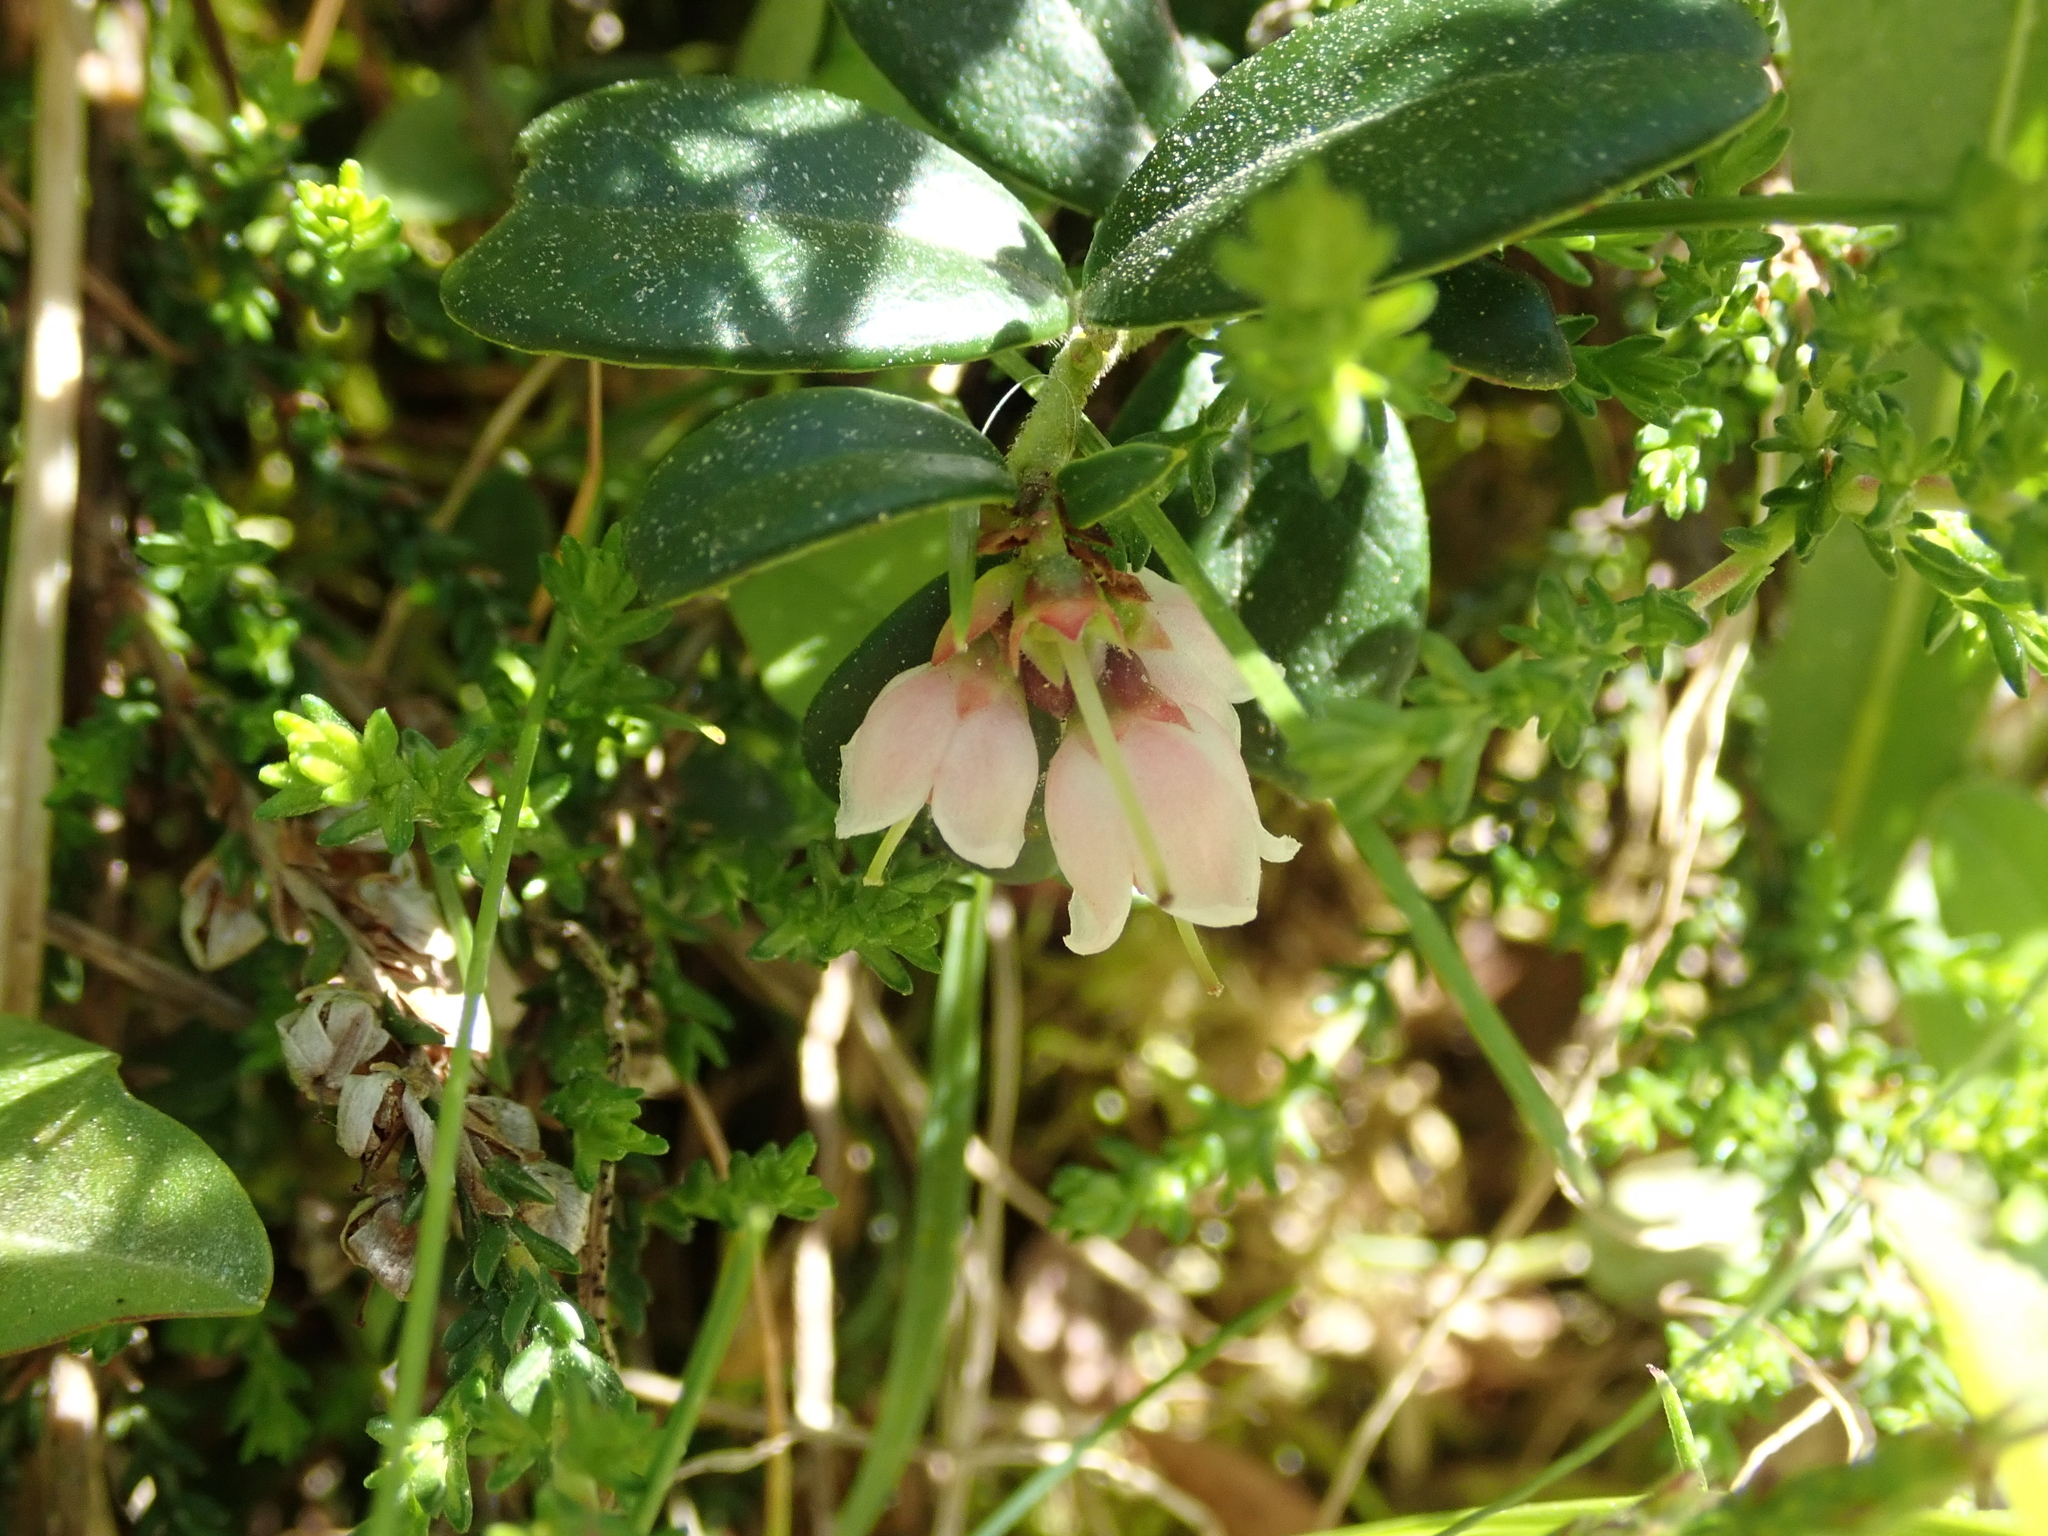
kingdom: Plantae
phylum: Tracheophyta
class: Magnoliopsida
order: Ericales
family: Ericaceae
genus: Vaccinium
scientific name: Vaccinium vitis-idaea
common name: Cowberry
